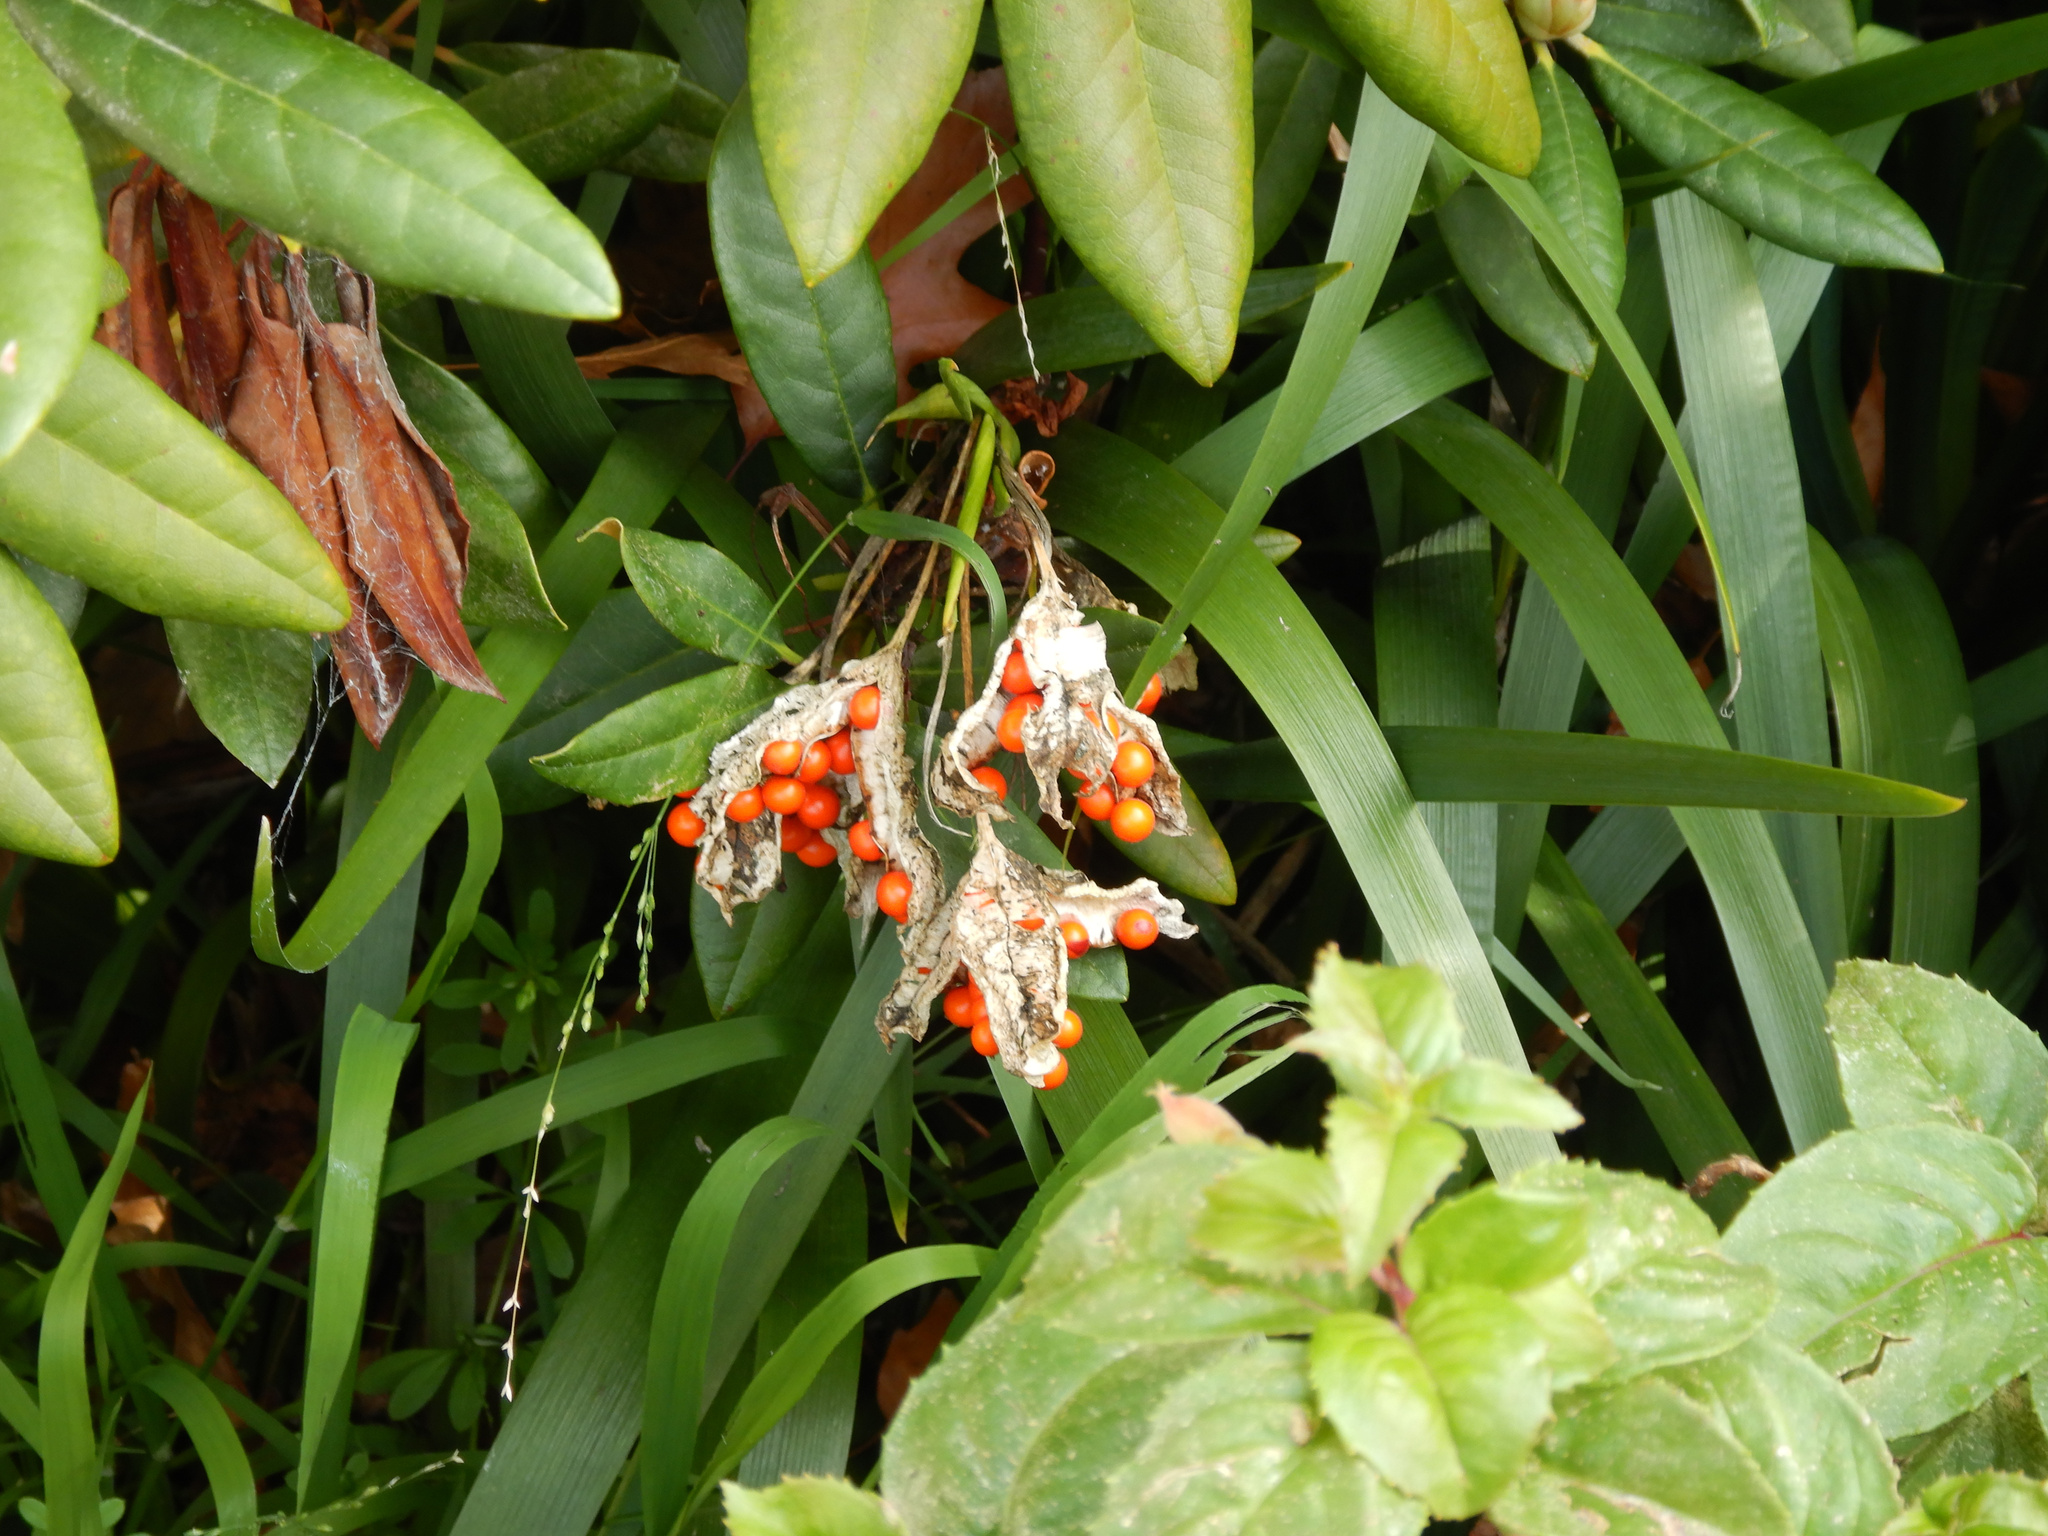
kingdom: Plantae
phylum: Tracheophyta
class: Liliopsida
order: Asparagales
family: Iridaceae
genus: Iris
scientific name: Iris foetidissima
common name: Stinking iris
